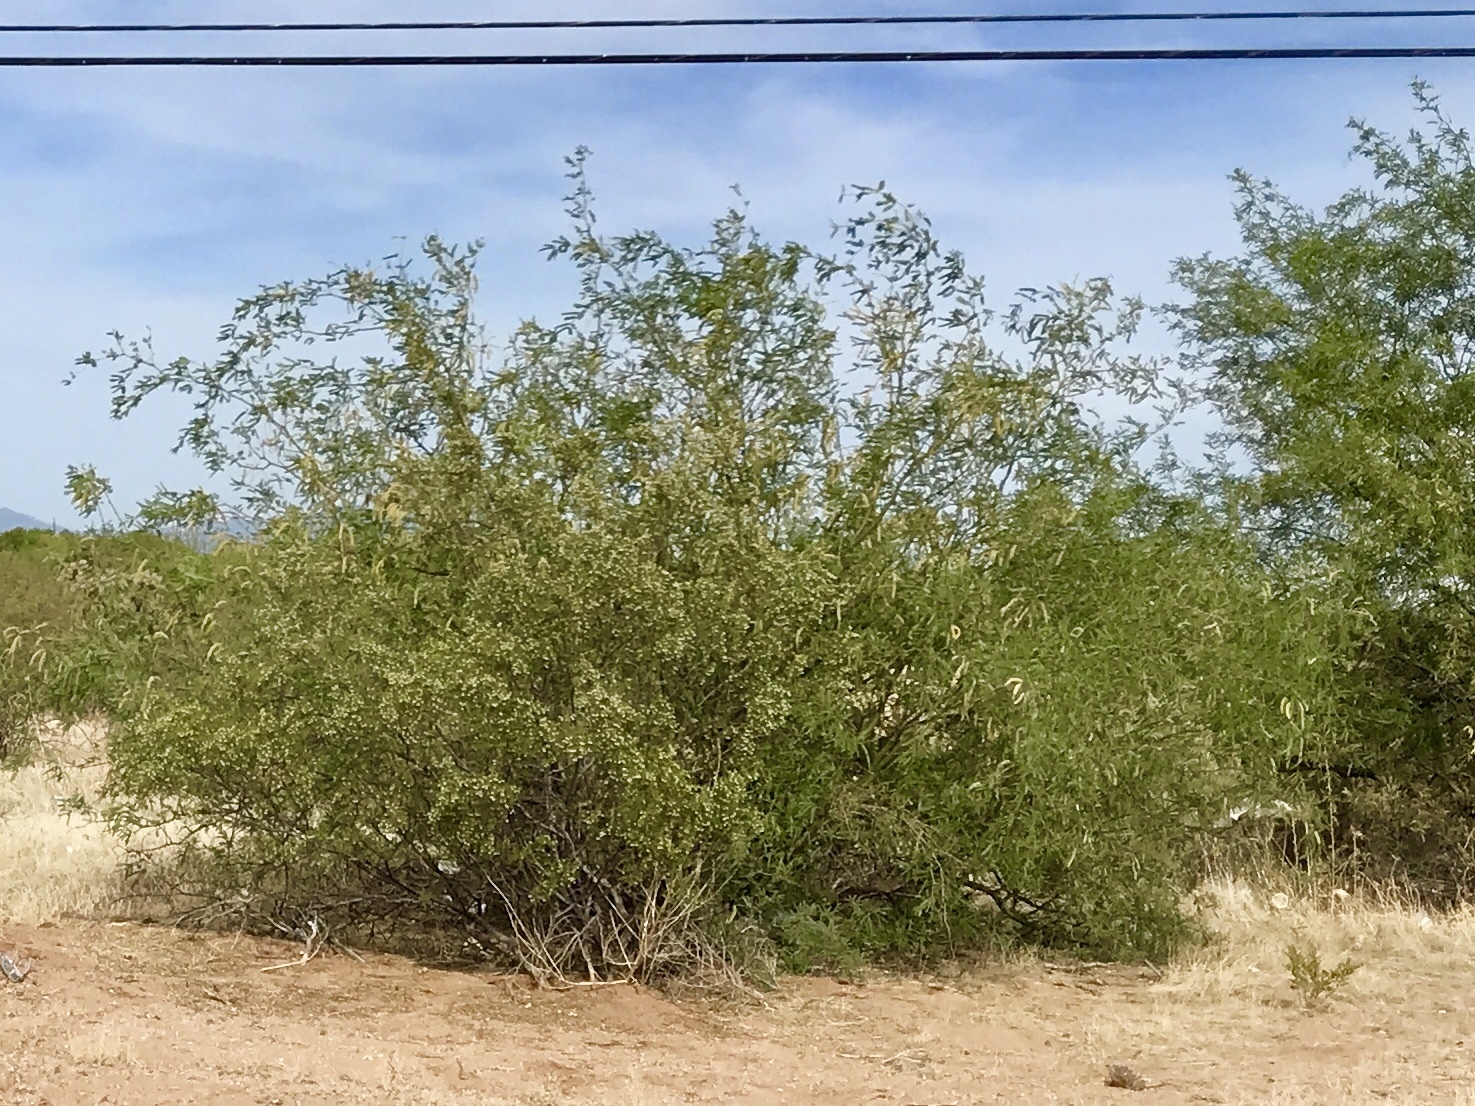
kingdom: Plantae
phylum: Tracheophyta
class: Magnoliopsida
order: Fabales
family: Fabaceae
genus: Prosopis
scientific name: Prosopis velutina
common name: Velvet mesquite
